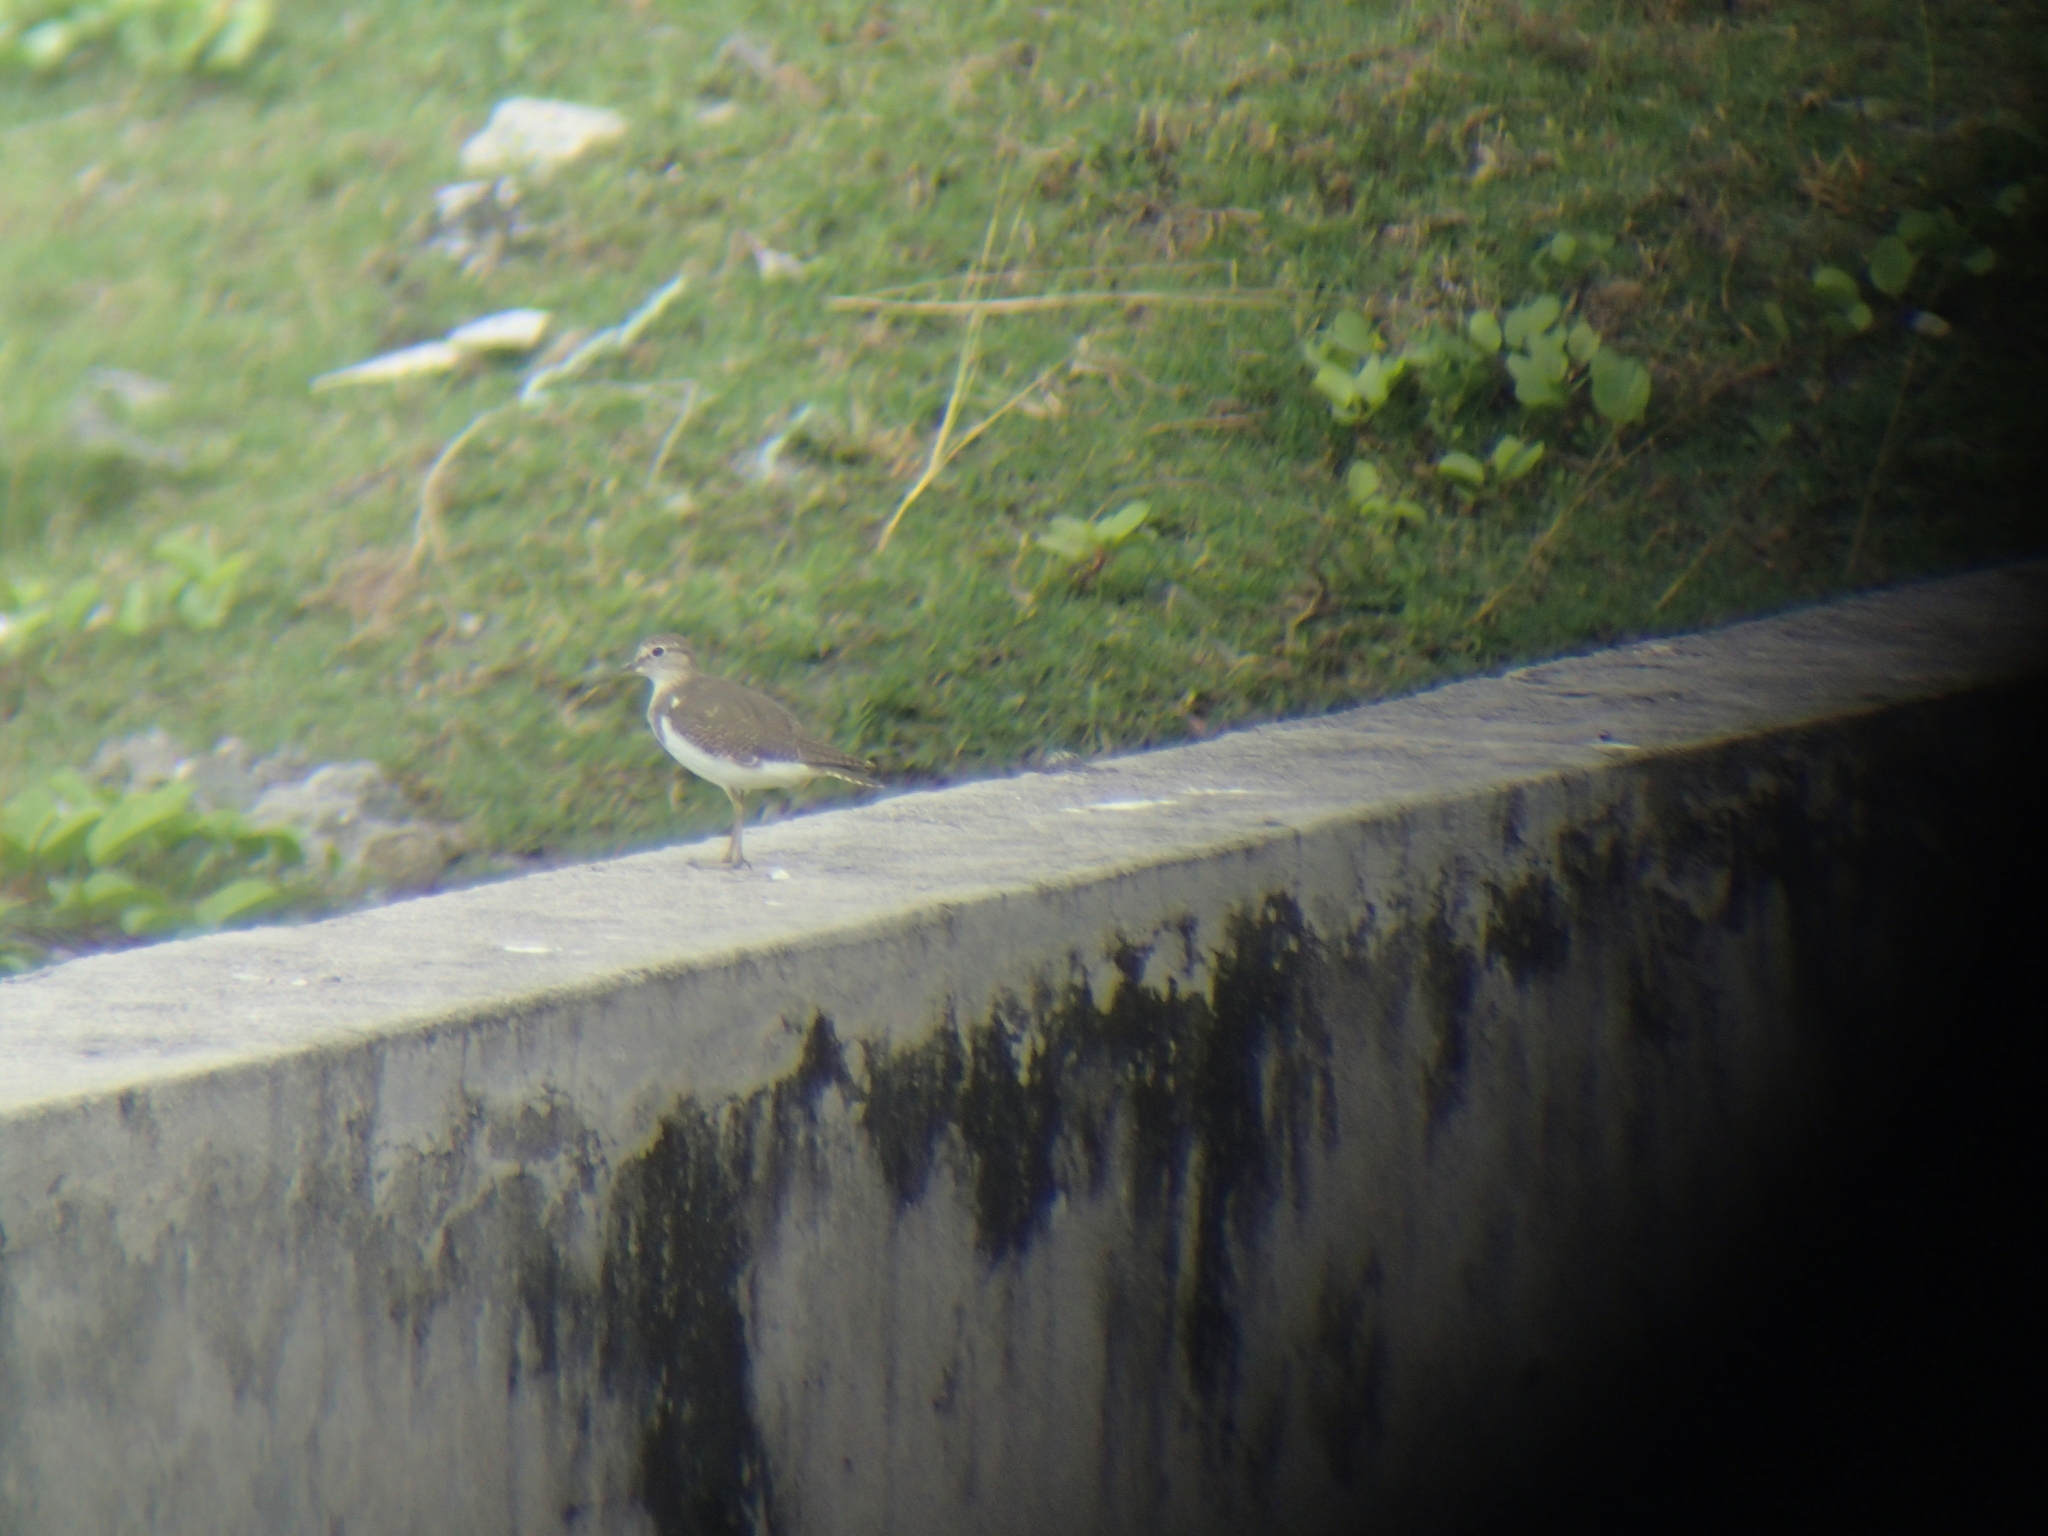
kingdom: Animalia
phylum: Chordata
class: Aves
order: Charadriiformes
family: Scolopacidae
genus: Actitis
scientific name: Actitis hypoleucos
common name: Common sandpiper
